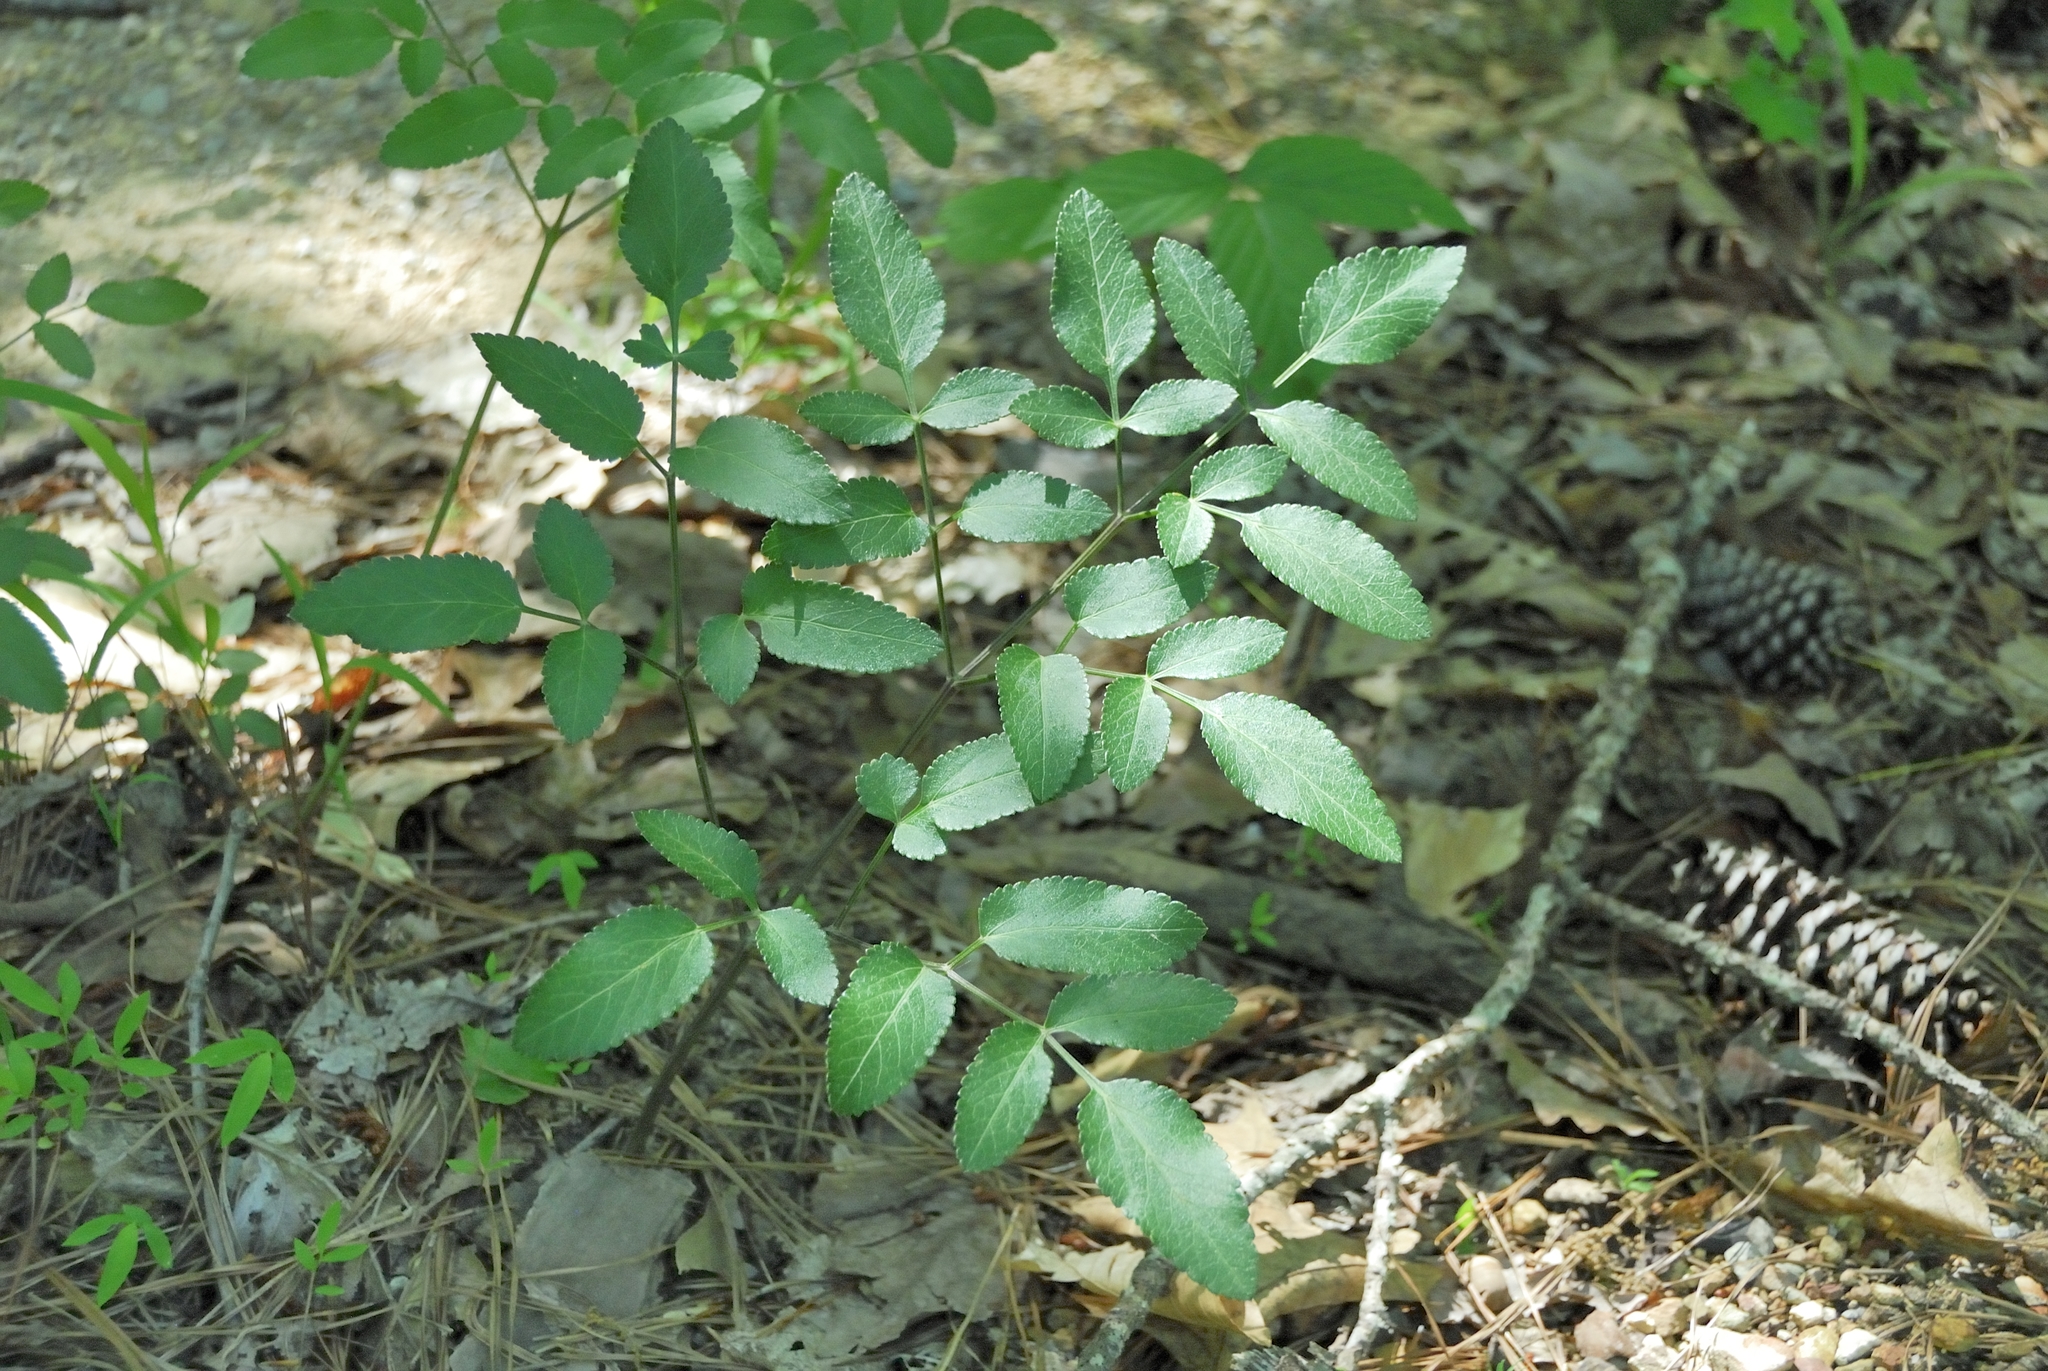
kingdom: Plantae
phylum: Tracheophyta
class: Magnoliopsida
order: Apiales
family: Apiaceae
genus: Angelica
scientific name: Angelica venenosa
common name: Hairy angelica
